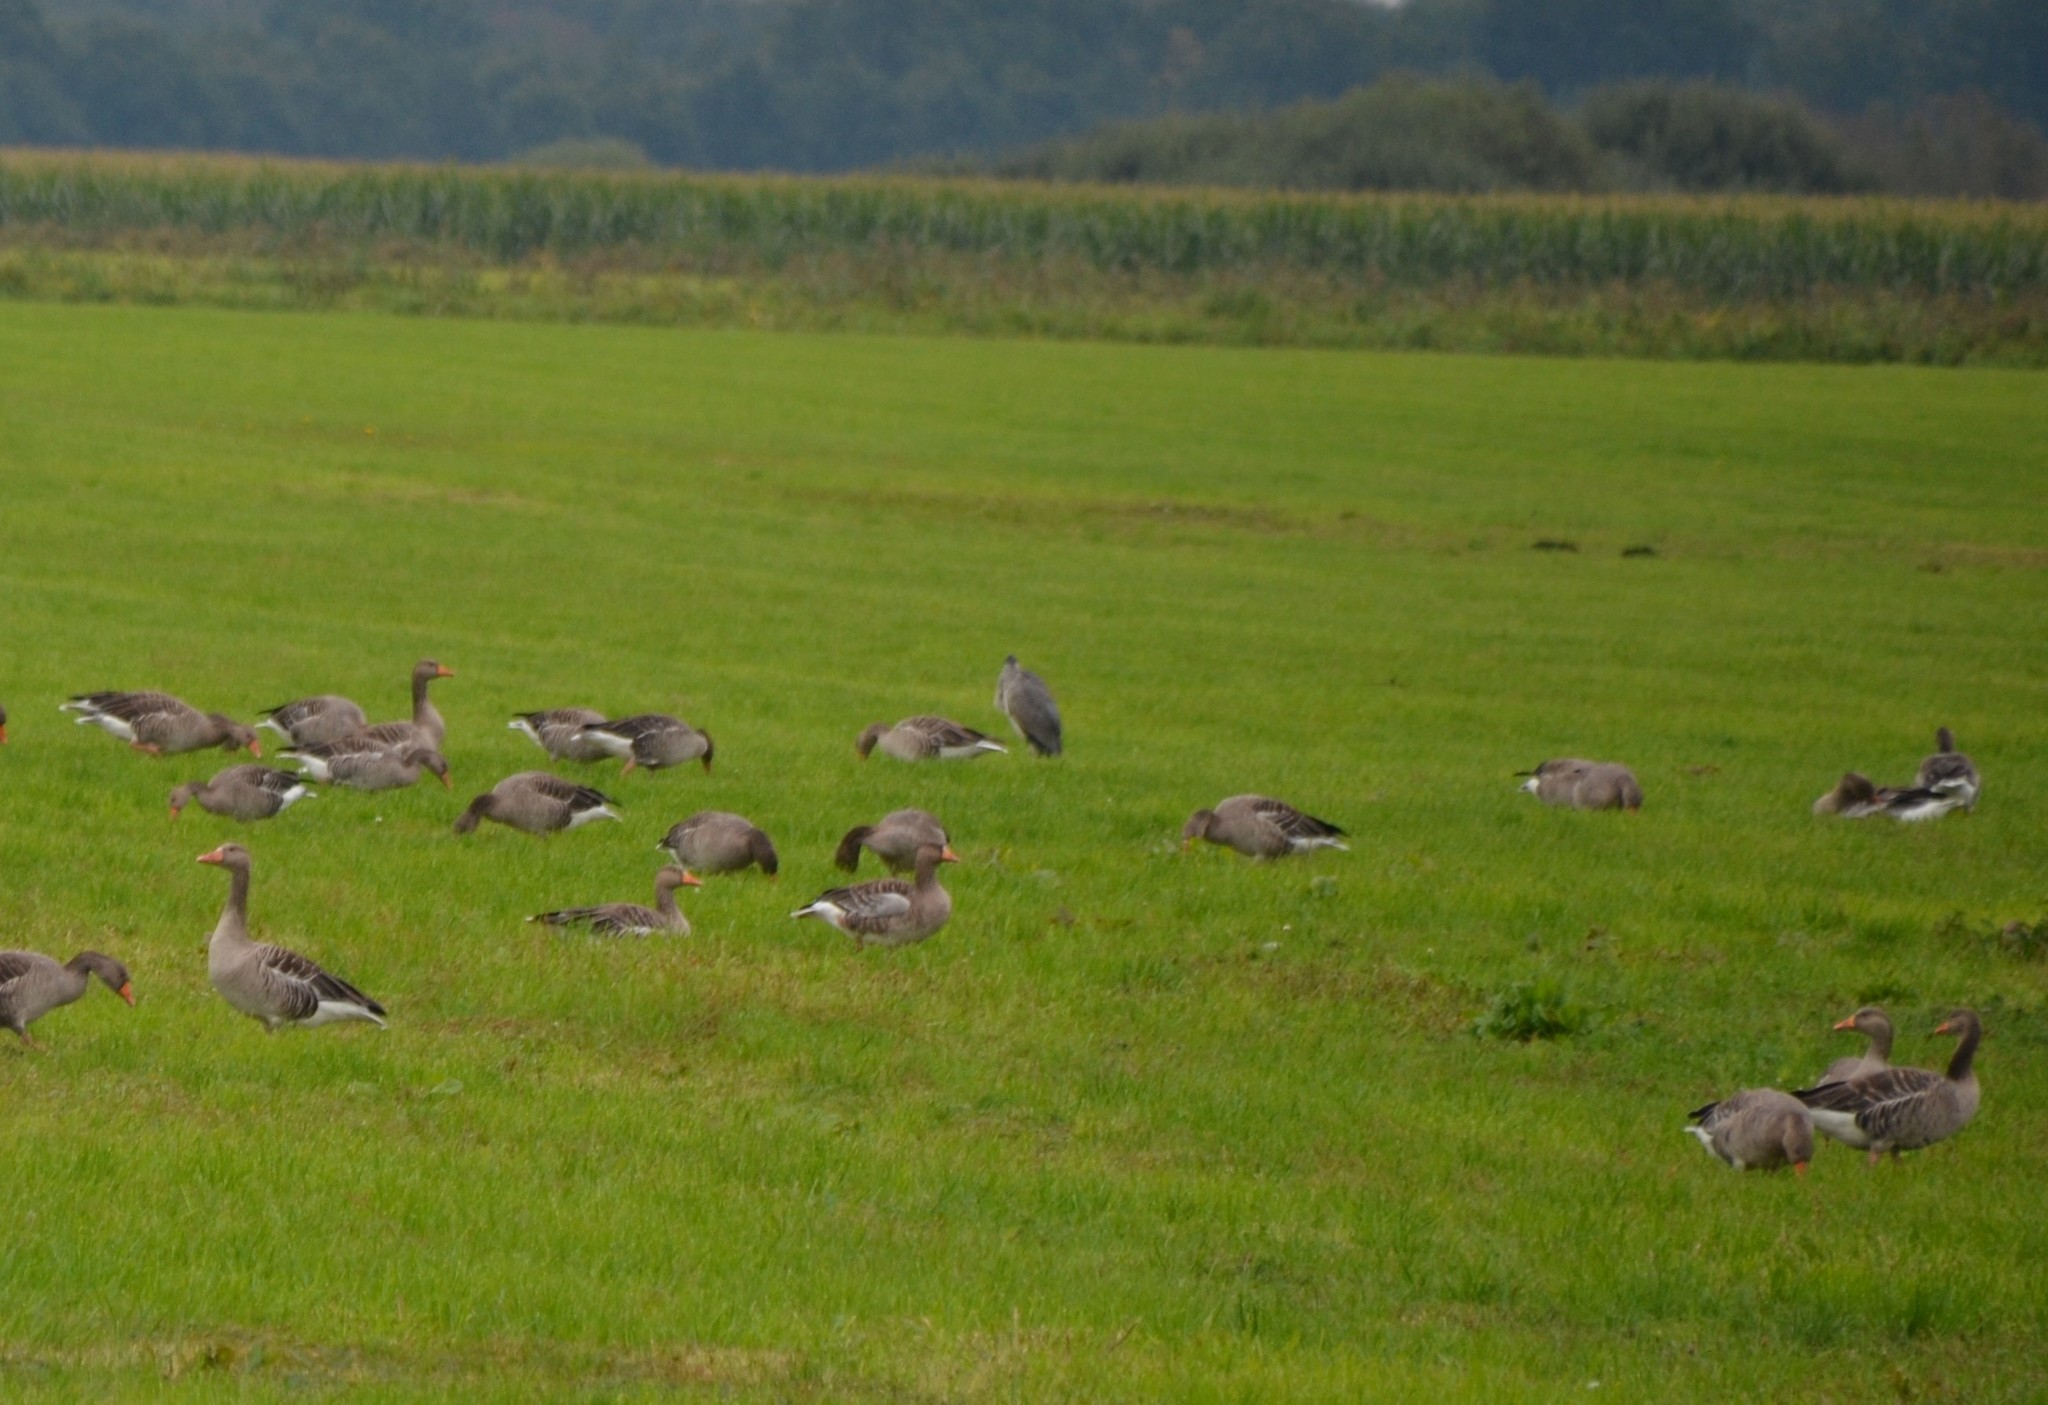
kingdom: Animalia
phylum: Chordata
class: Aves
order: Pelecaniformes
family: Ardeidae
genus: Ardea
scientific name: Ardea cinerea
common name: Grey heron
